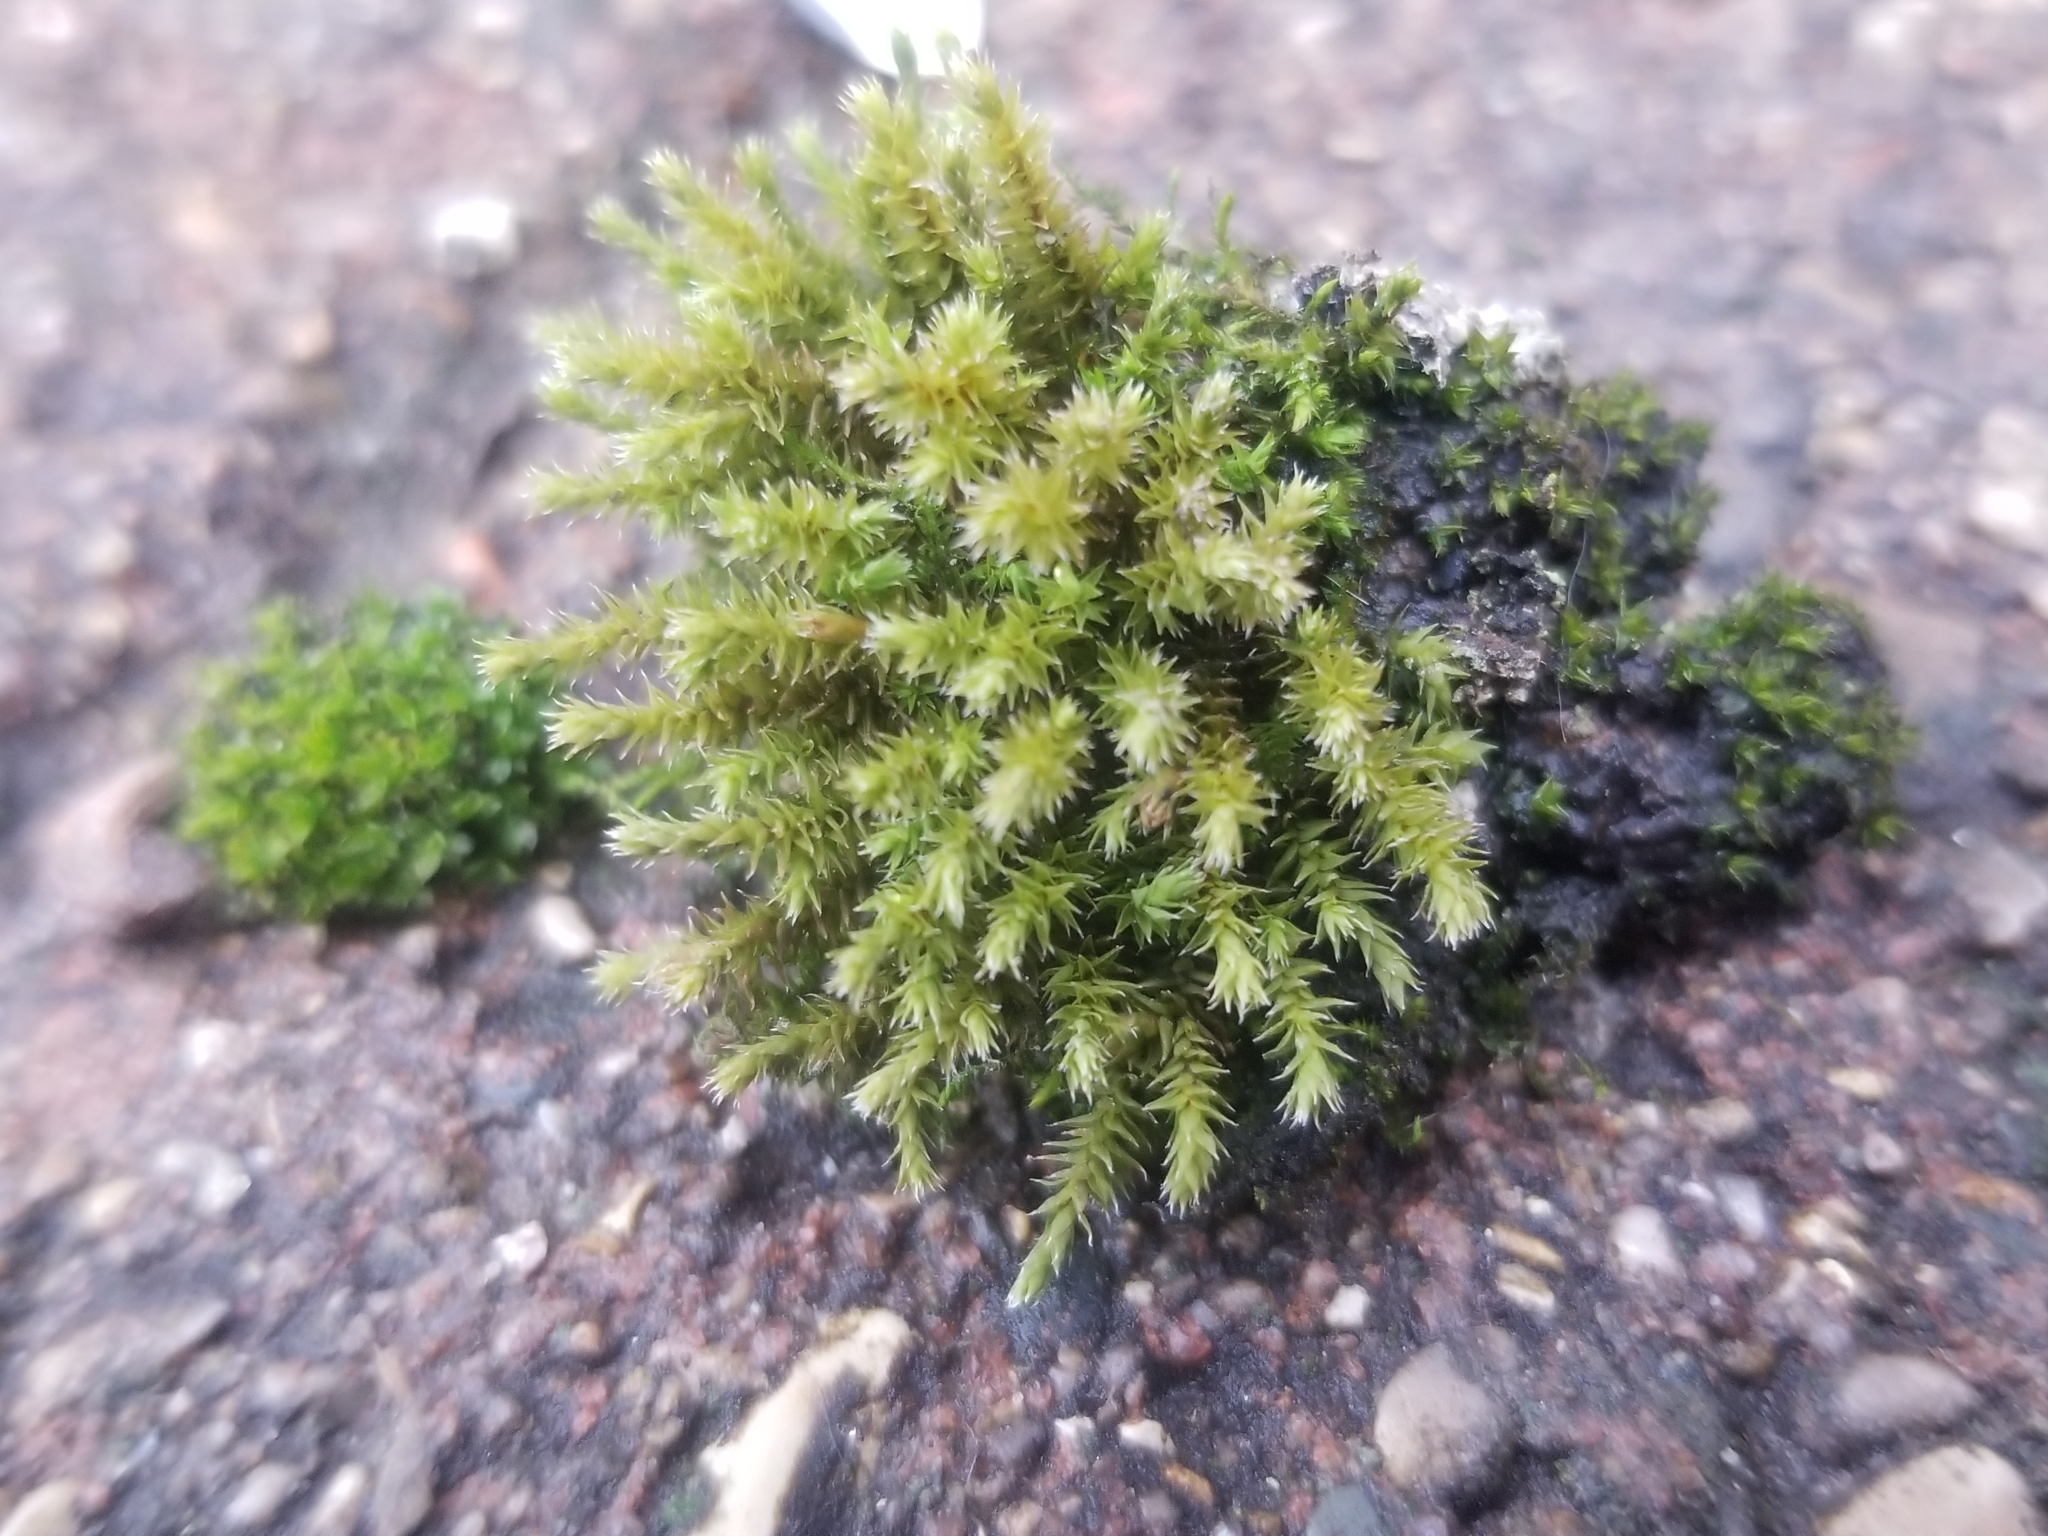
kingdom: Plantae
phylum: Bryophyta
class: Bryopsida
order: Hedwigiales
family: Hedwigiaceae
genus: Hedwigia
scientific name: Hedwigia ciliata
